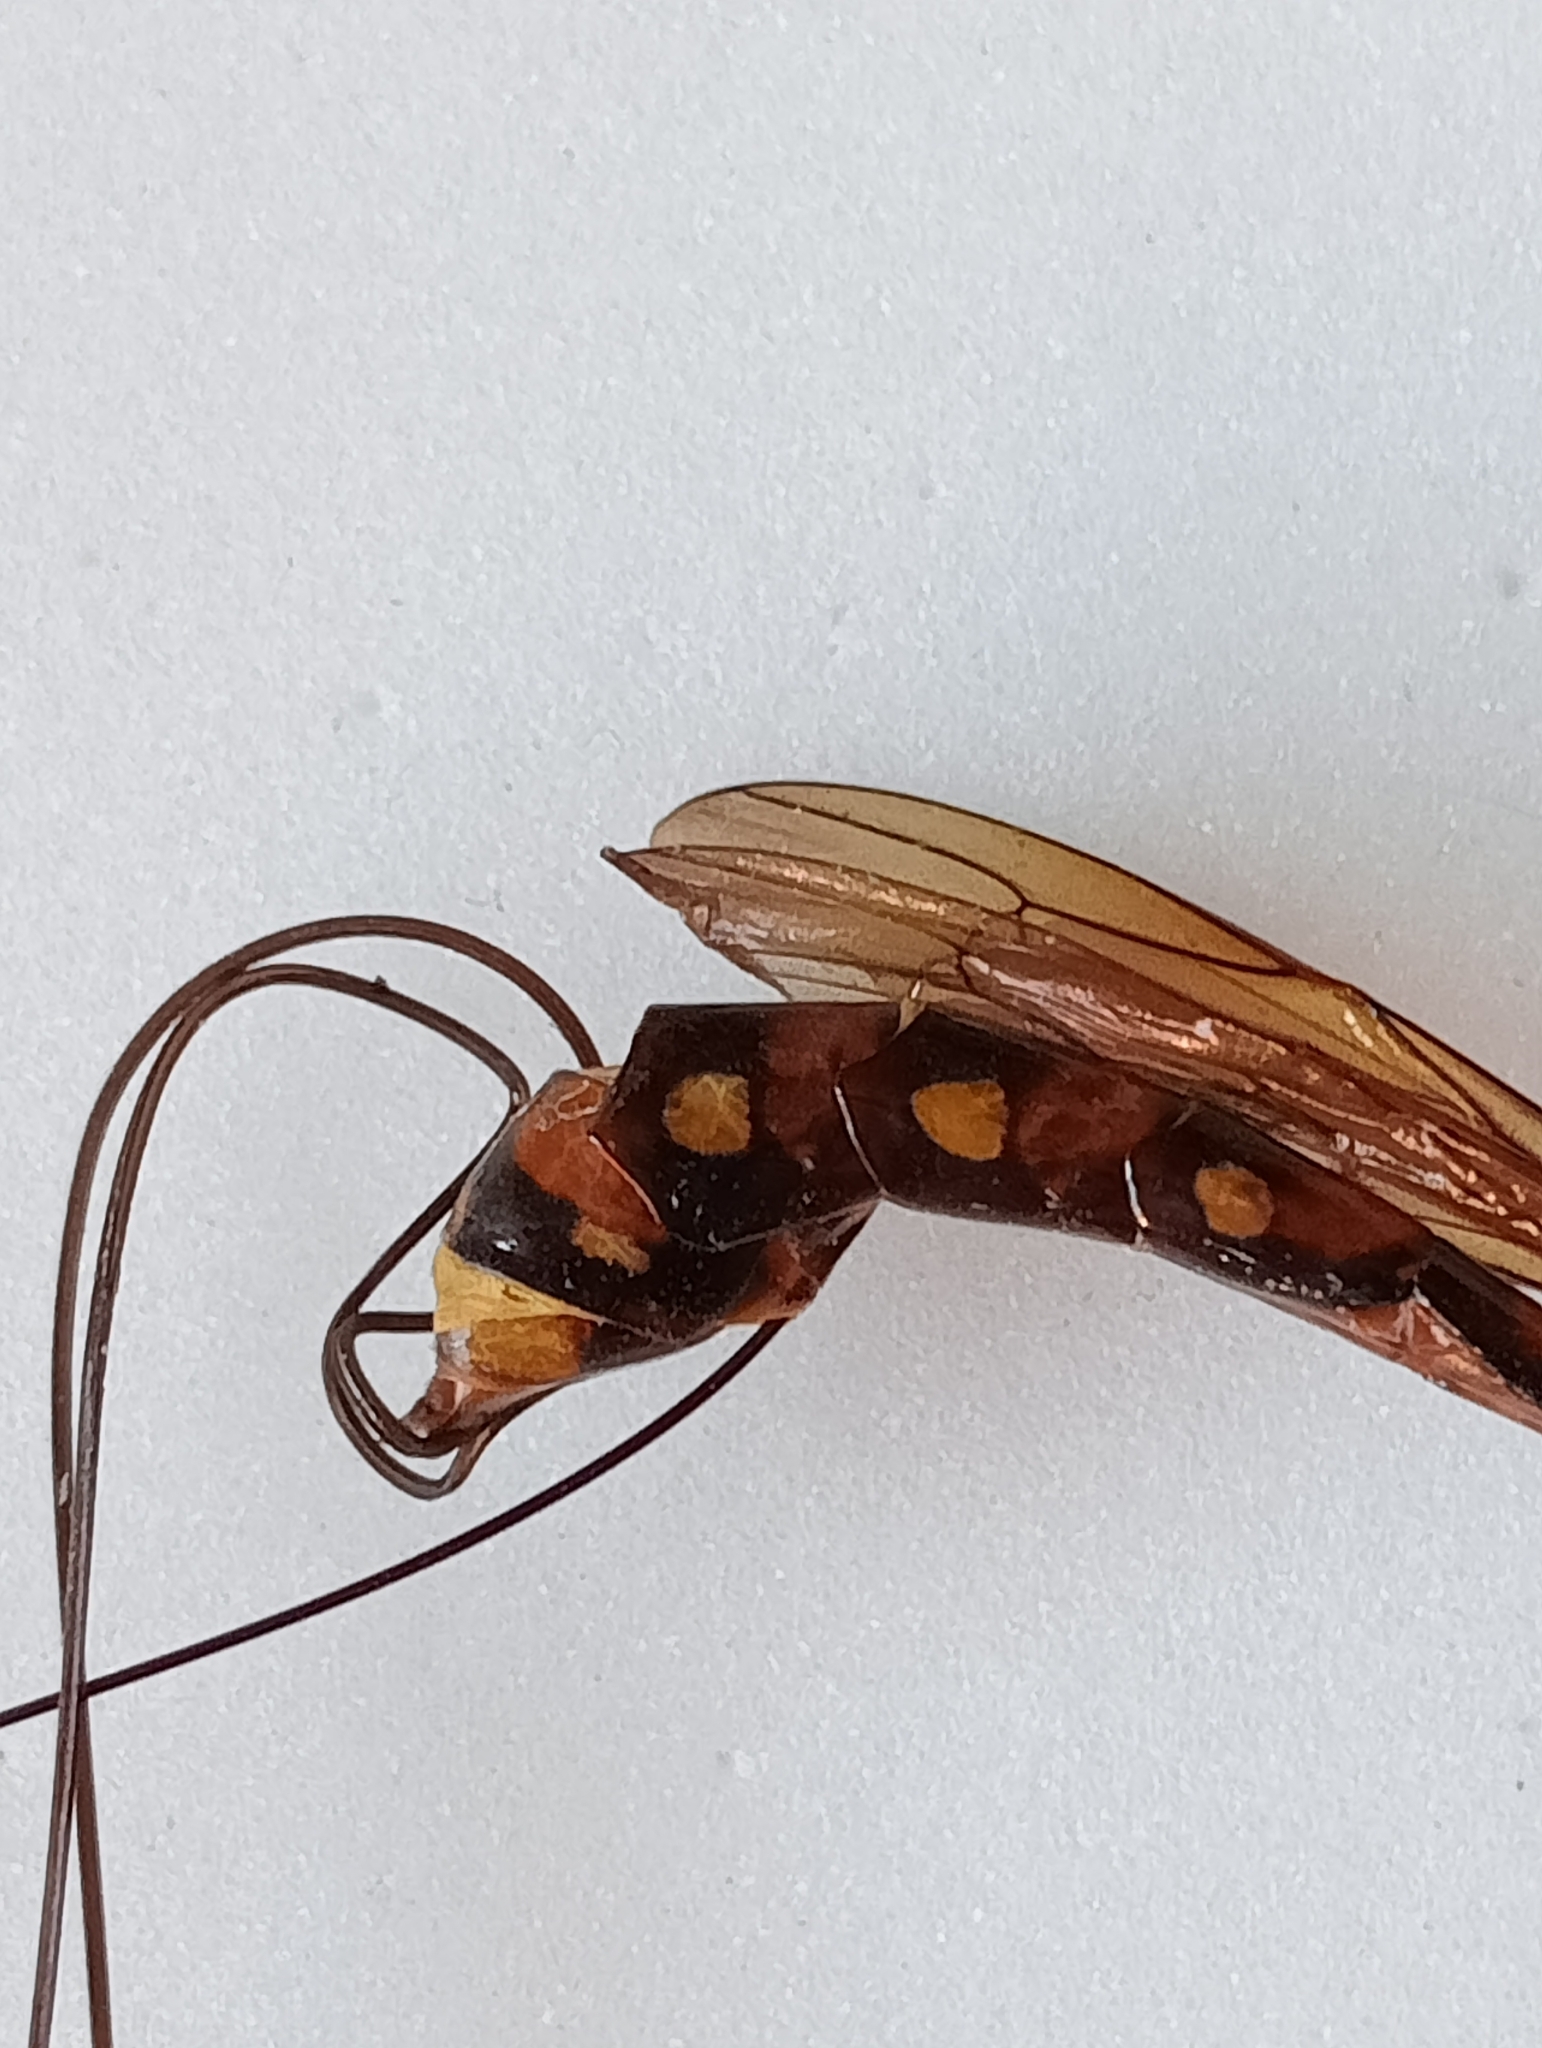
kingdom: Animalia
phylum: Arthropoda
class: Insecta
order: Hymenoptera
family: Ichneumonidae
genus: Megarhyssa
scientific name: Megarhyssa nortoni
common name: Norton's giant ichneumonid wasp
